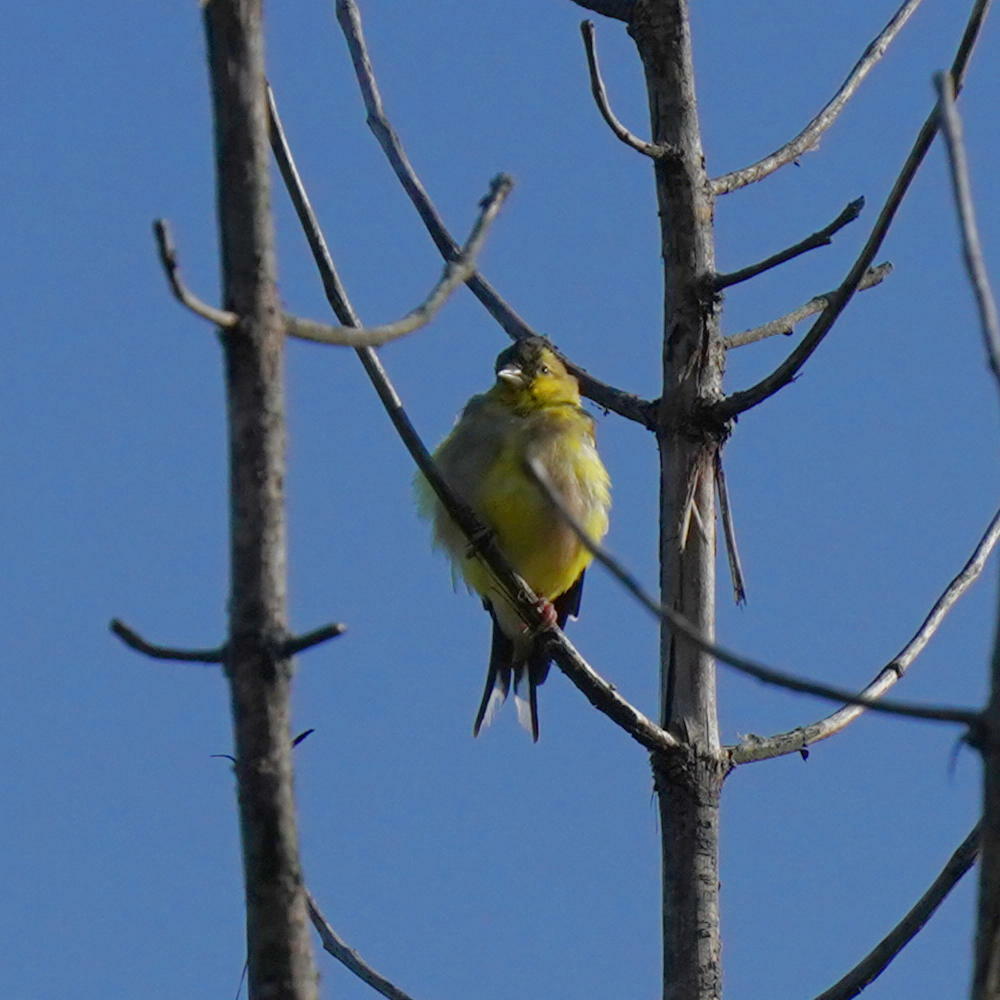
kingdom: Animalia
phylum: Chordata
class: Aves
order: Passeriformes
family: Fringillidae
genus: Spinus
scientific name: Spinus tristis
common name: American goldfinch
